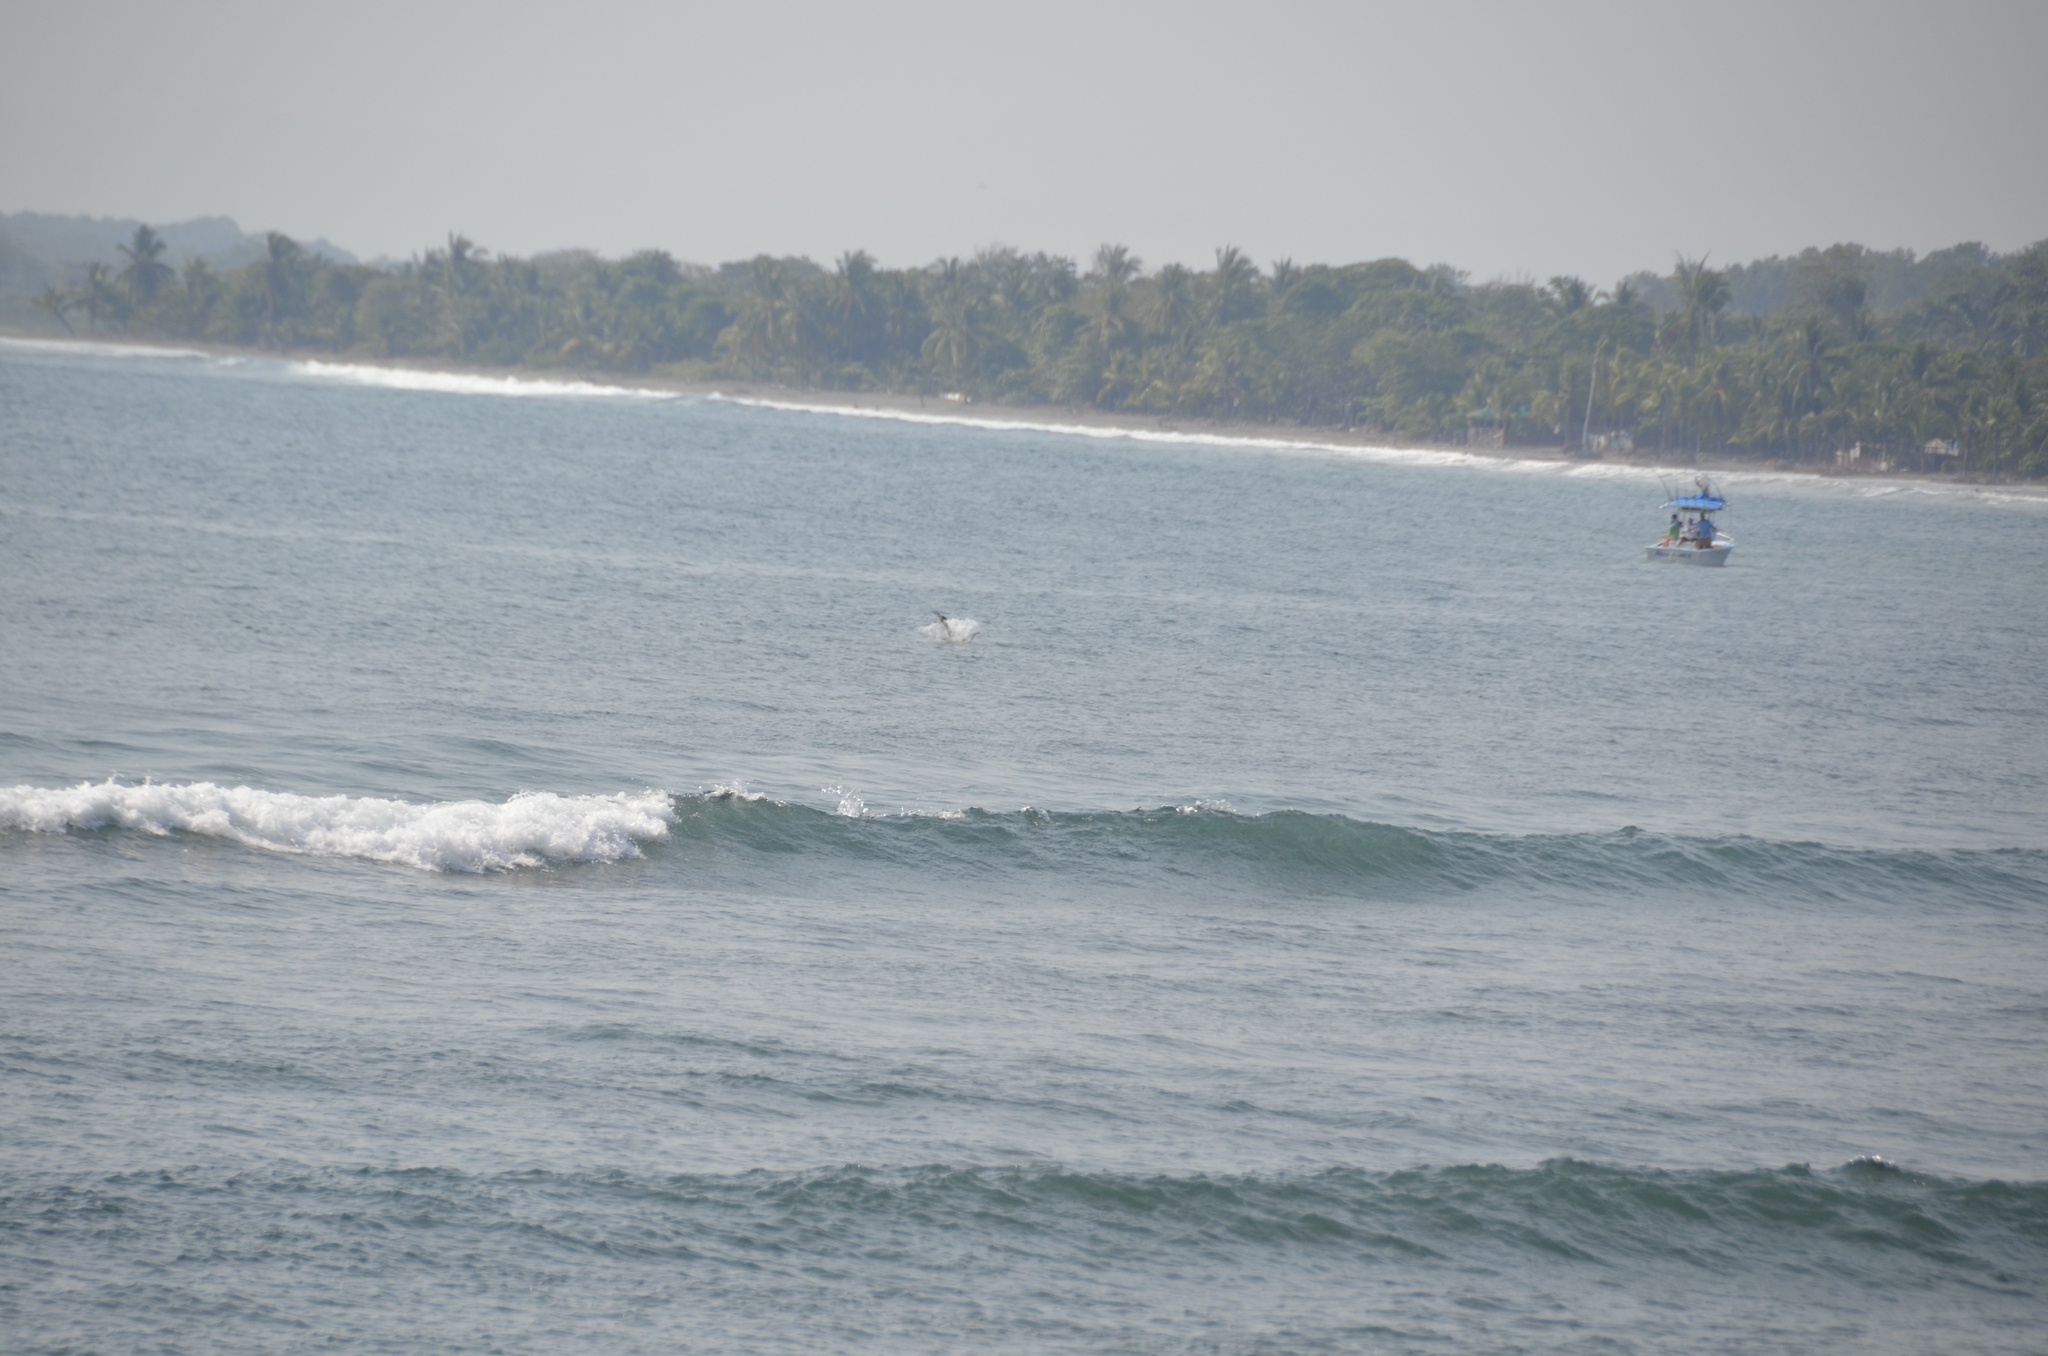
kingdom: Animalia
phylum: Chordata
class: Aves
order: Pelecaniformes
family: Pelecanidae
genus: Pelecanus
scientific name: Pelecanus occidentalis
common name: Brown pelican
